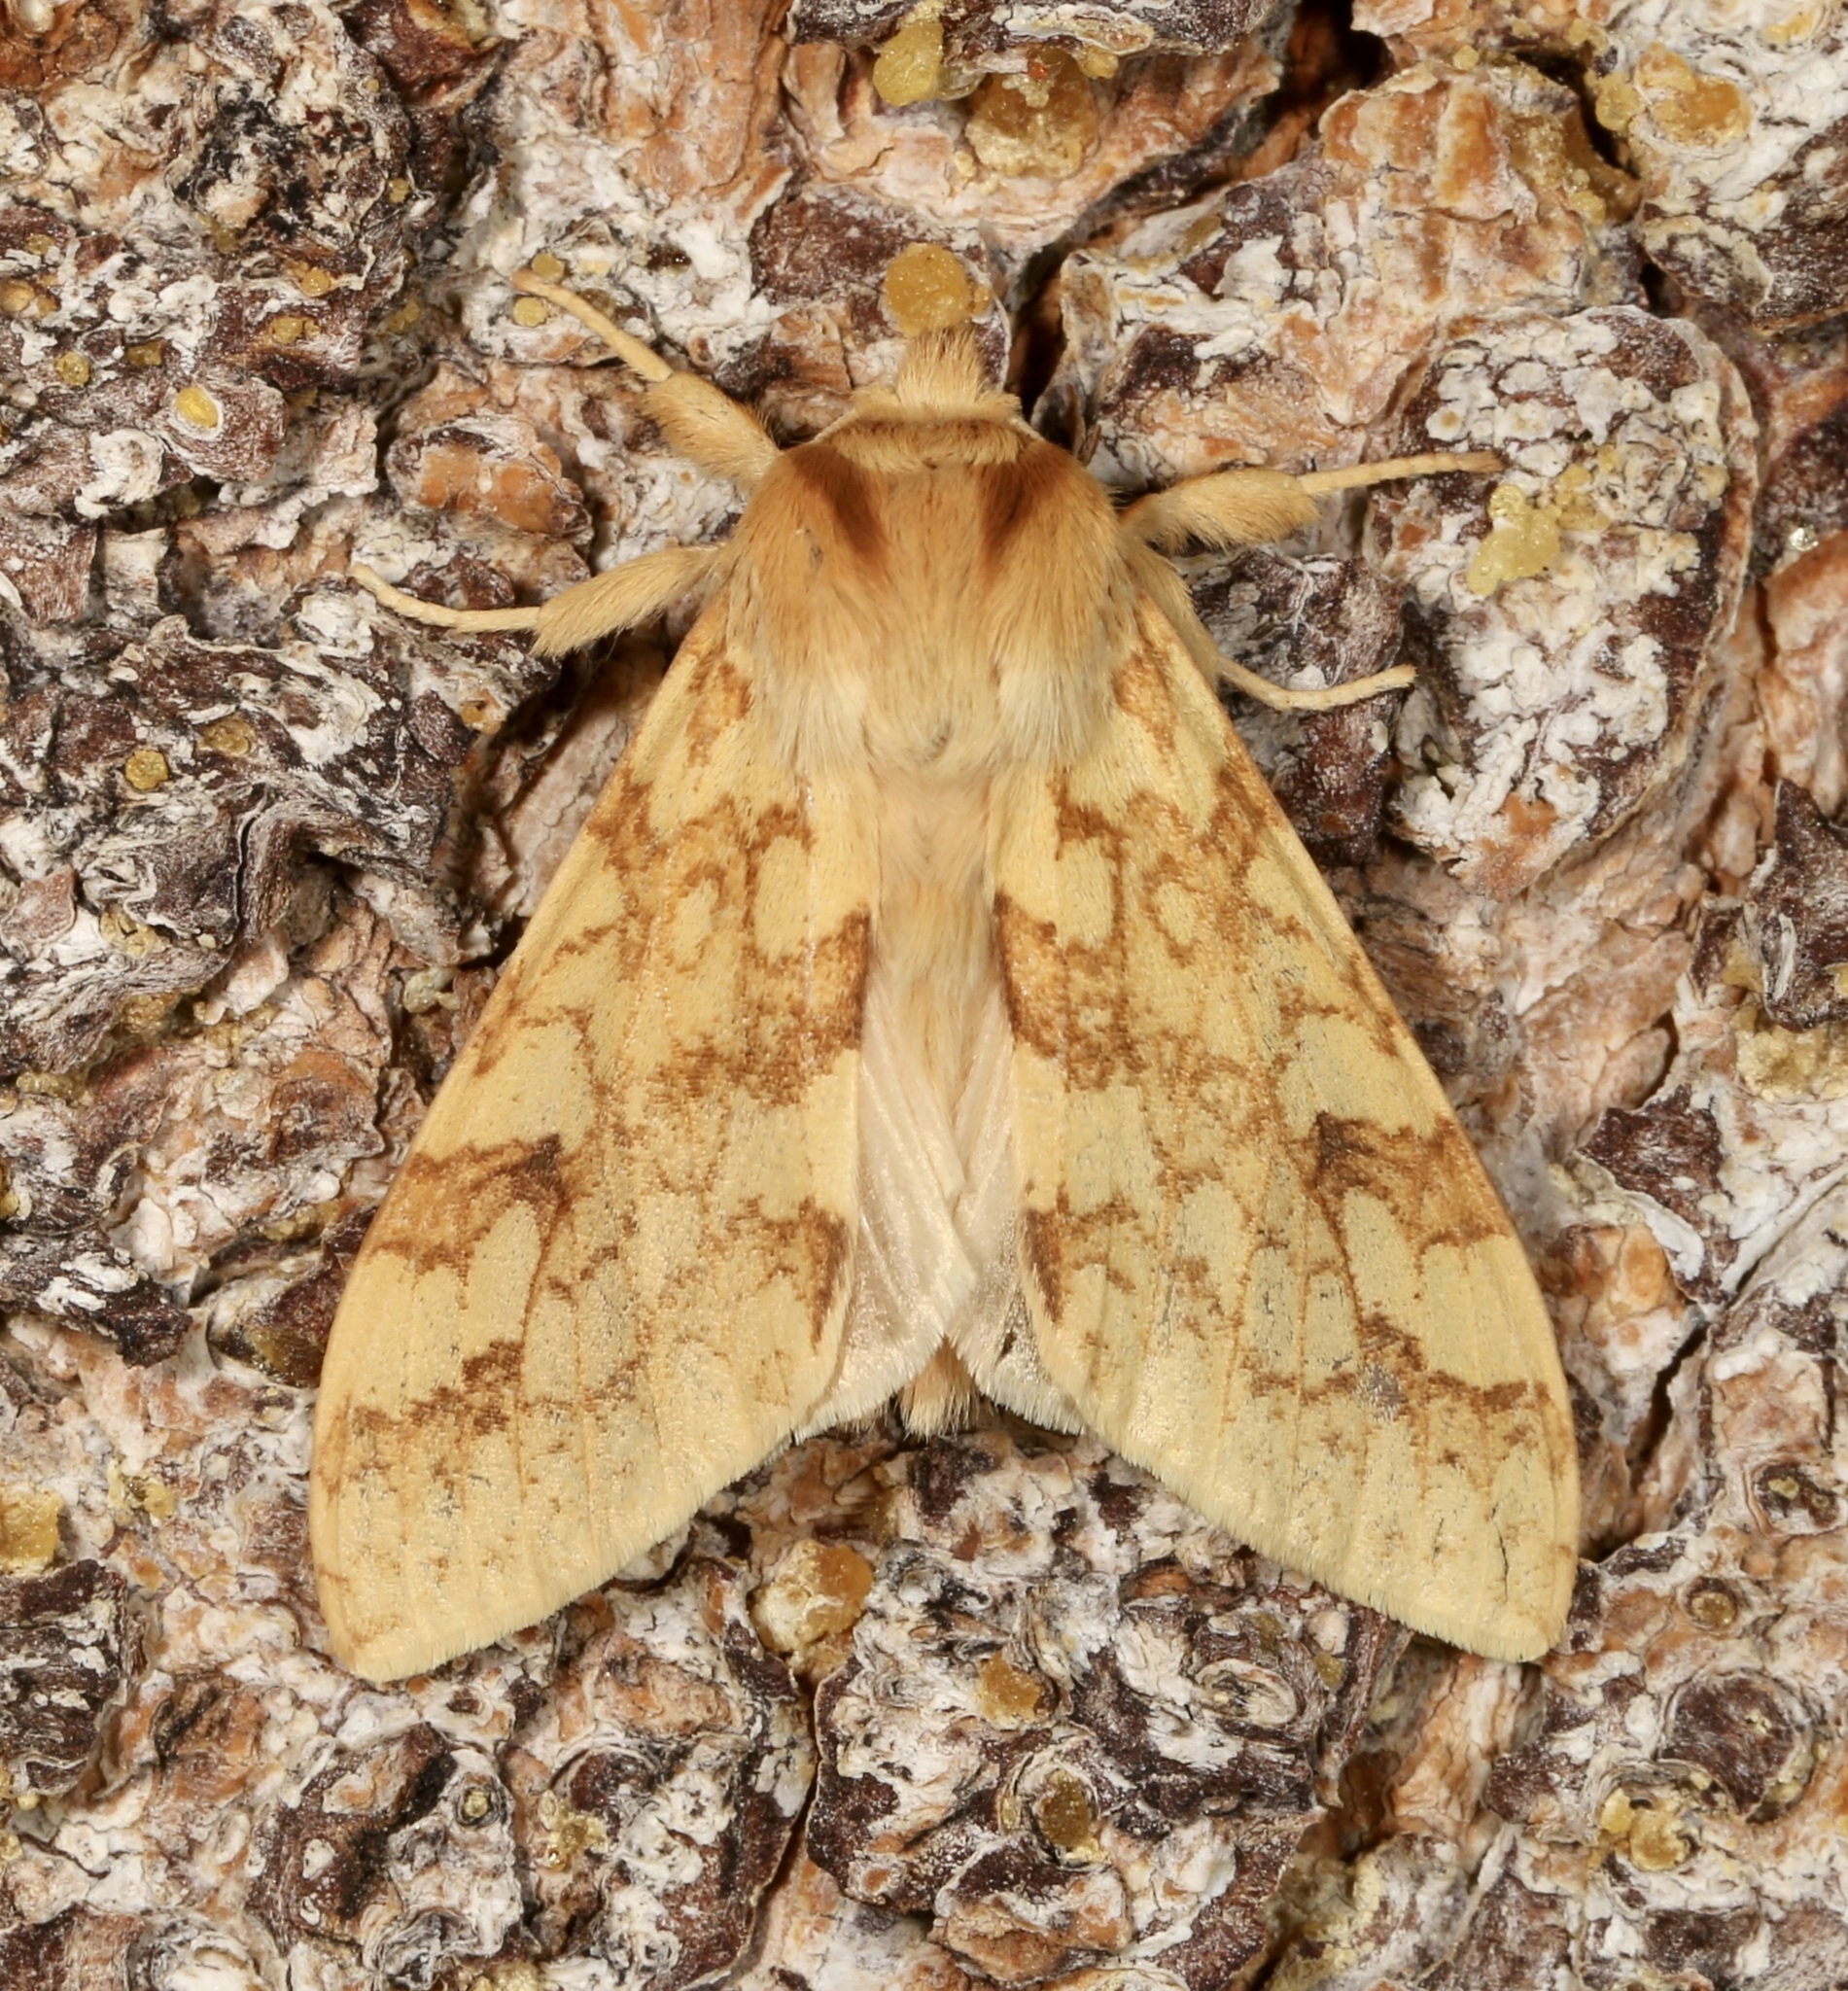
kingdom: Animalia
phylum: Arthropoda
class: Insecta
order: Lepidoptera
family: Erebidae
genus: Lophocampa
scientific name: Lophocampa maculata
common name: Spotted tussock moth
